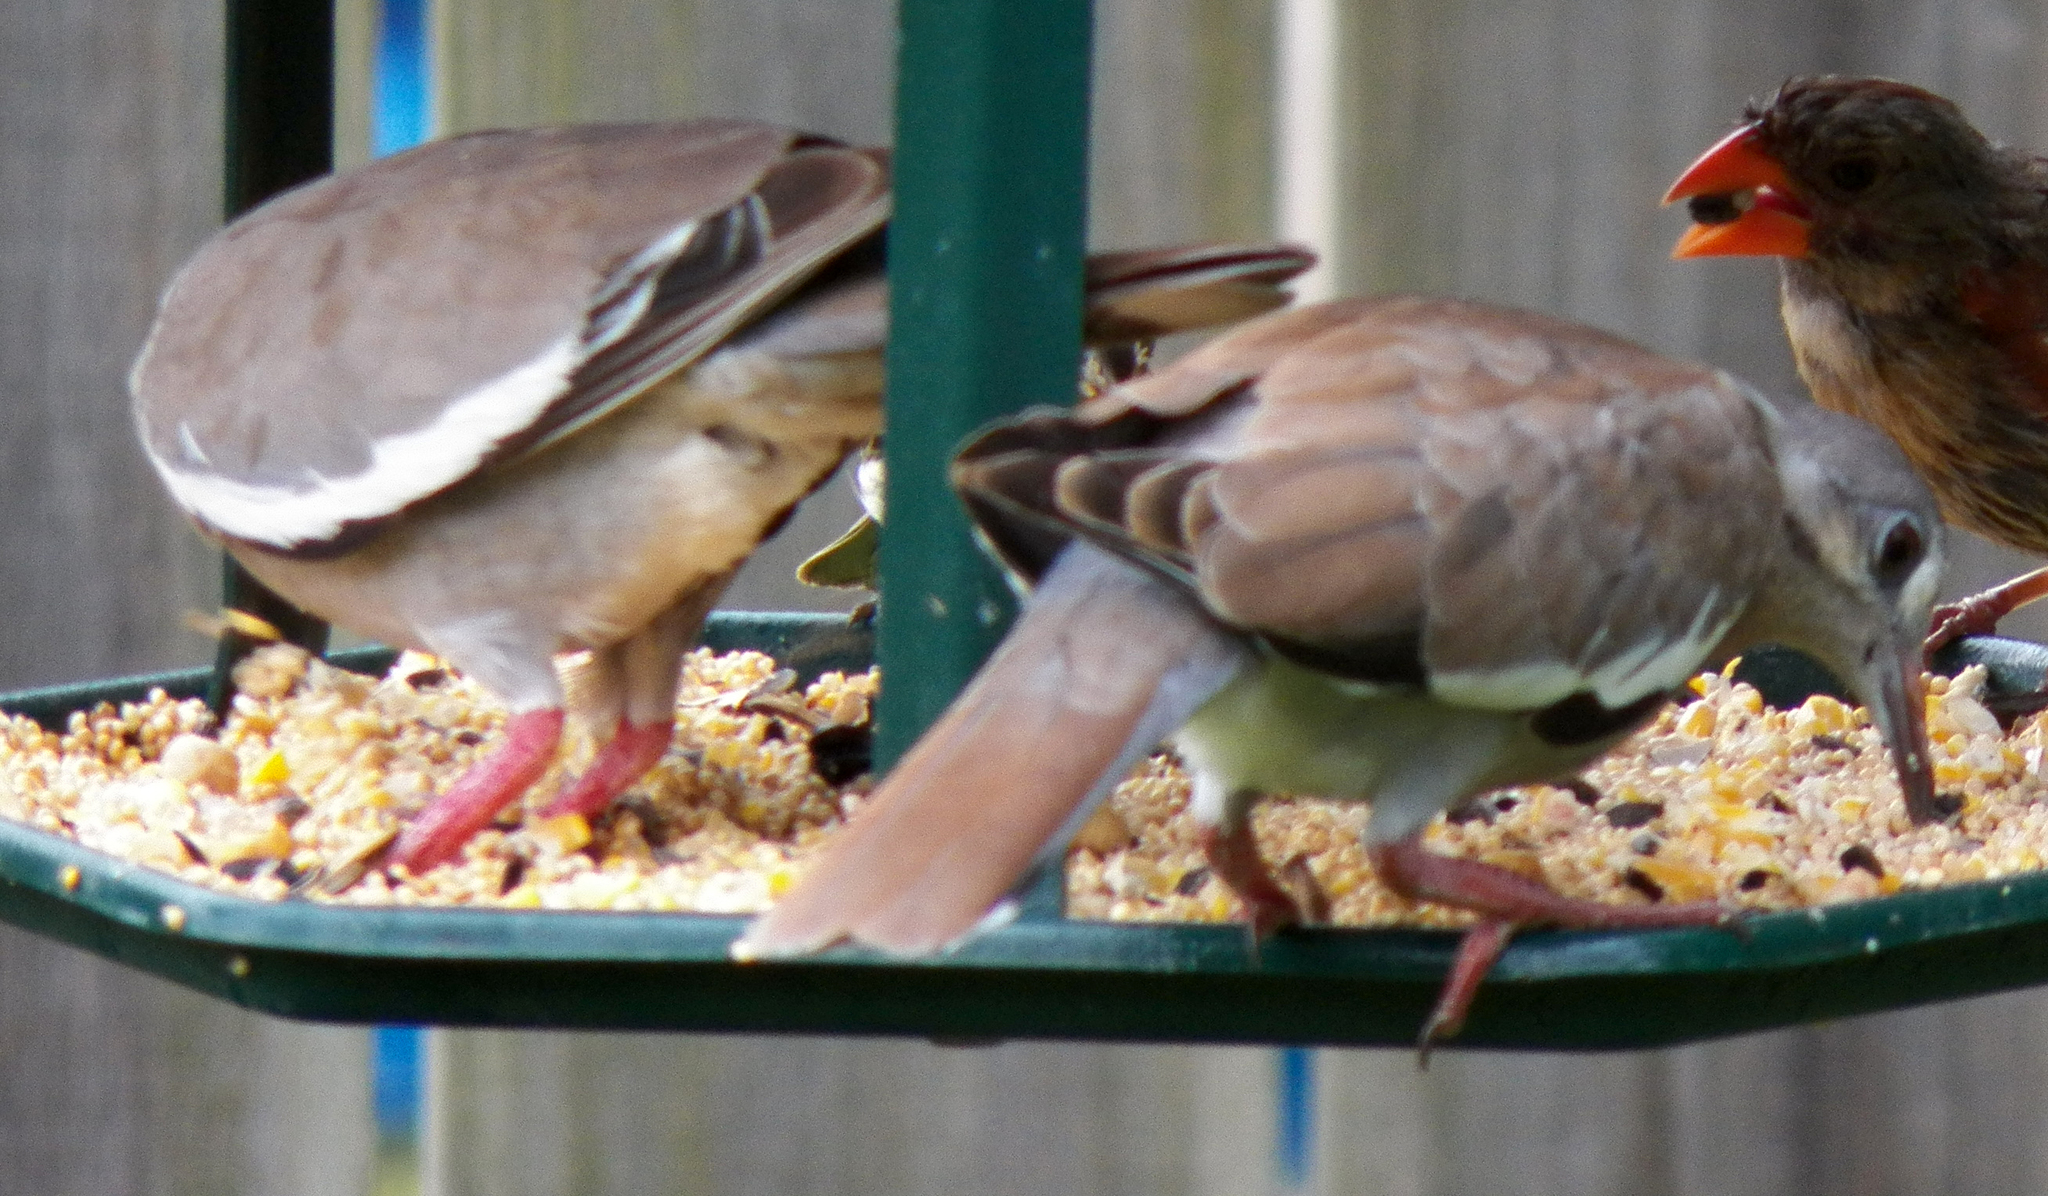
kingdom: Animalia
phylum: Chordata
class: Aves
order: Columbiformes
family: Columbidae
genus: Zenaida
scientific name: Zenaida asiatica
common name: White-winged dove
